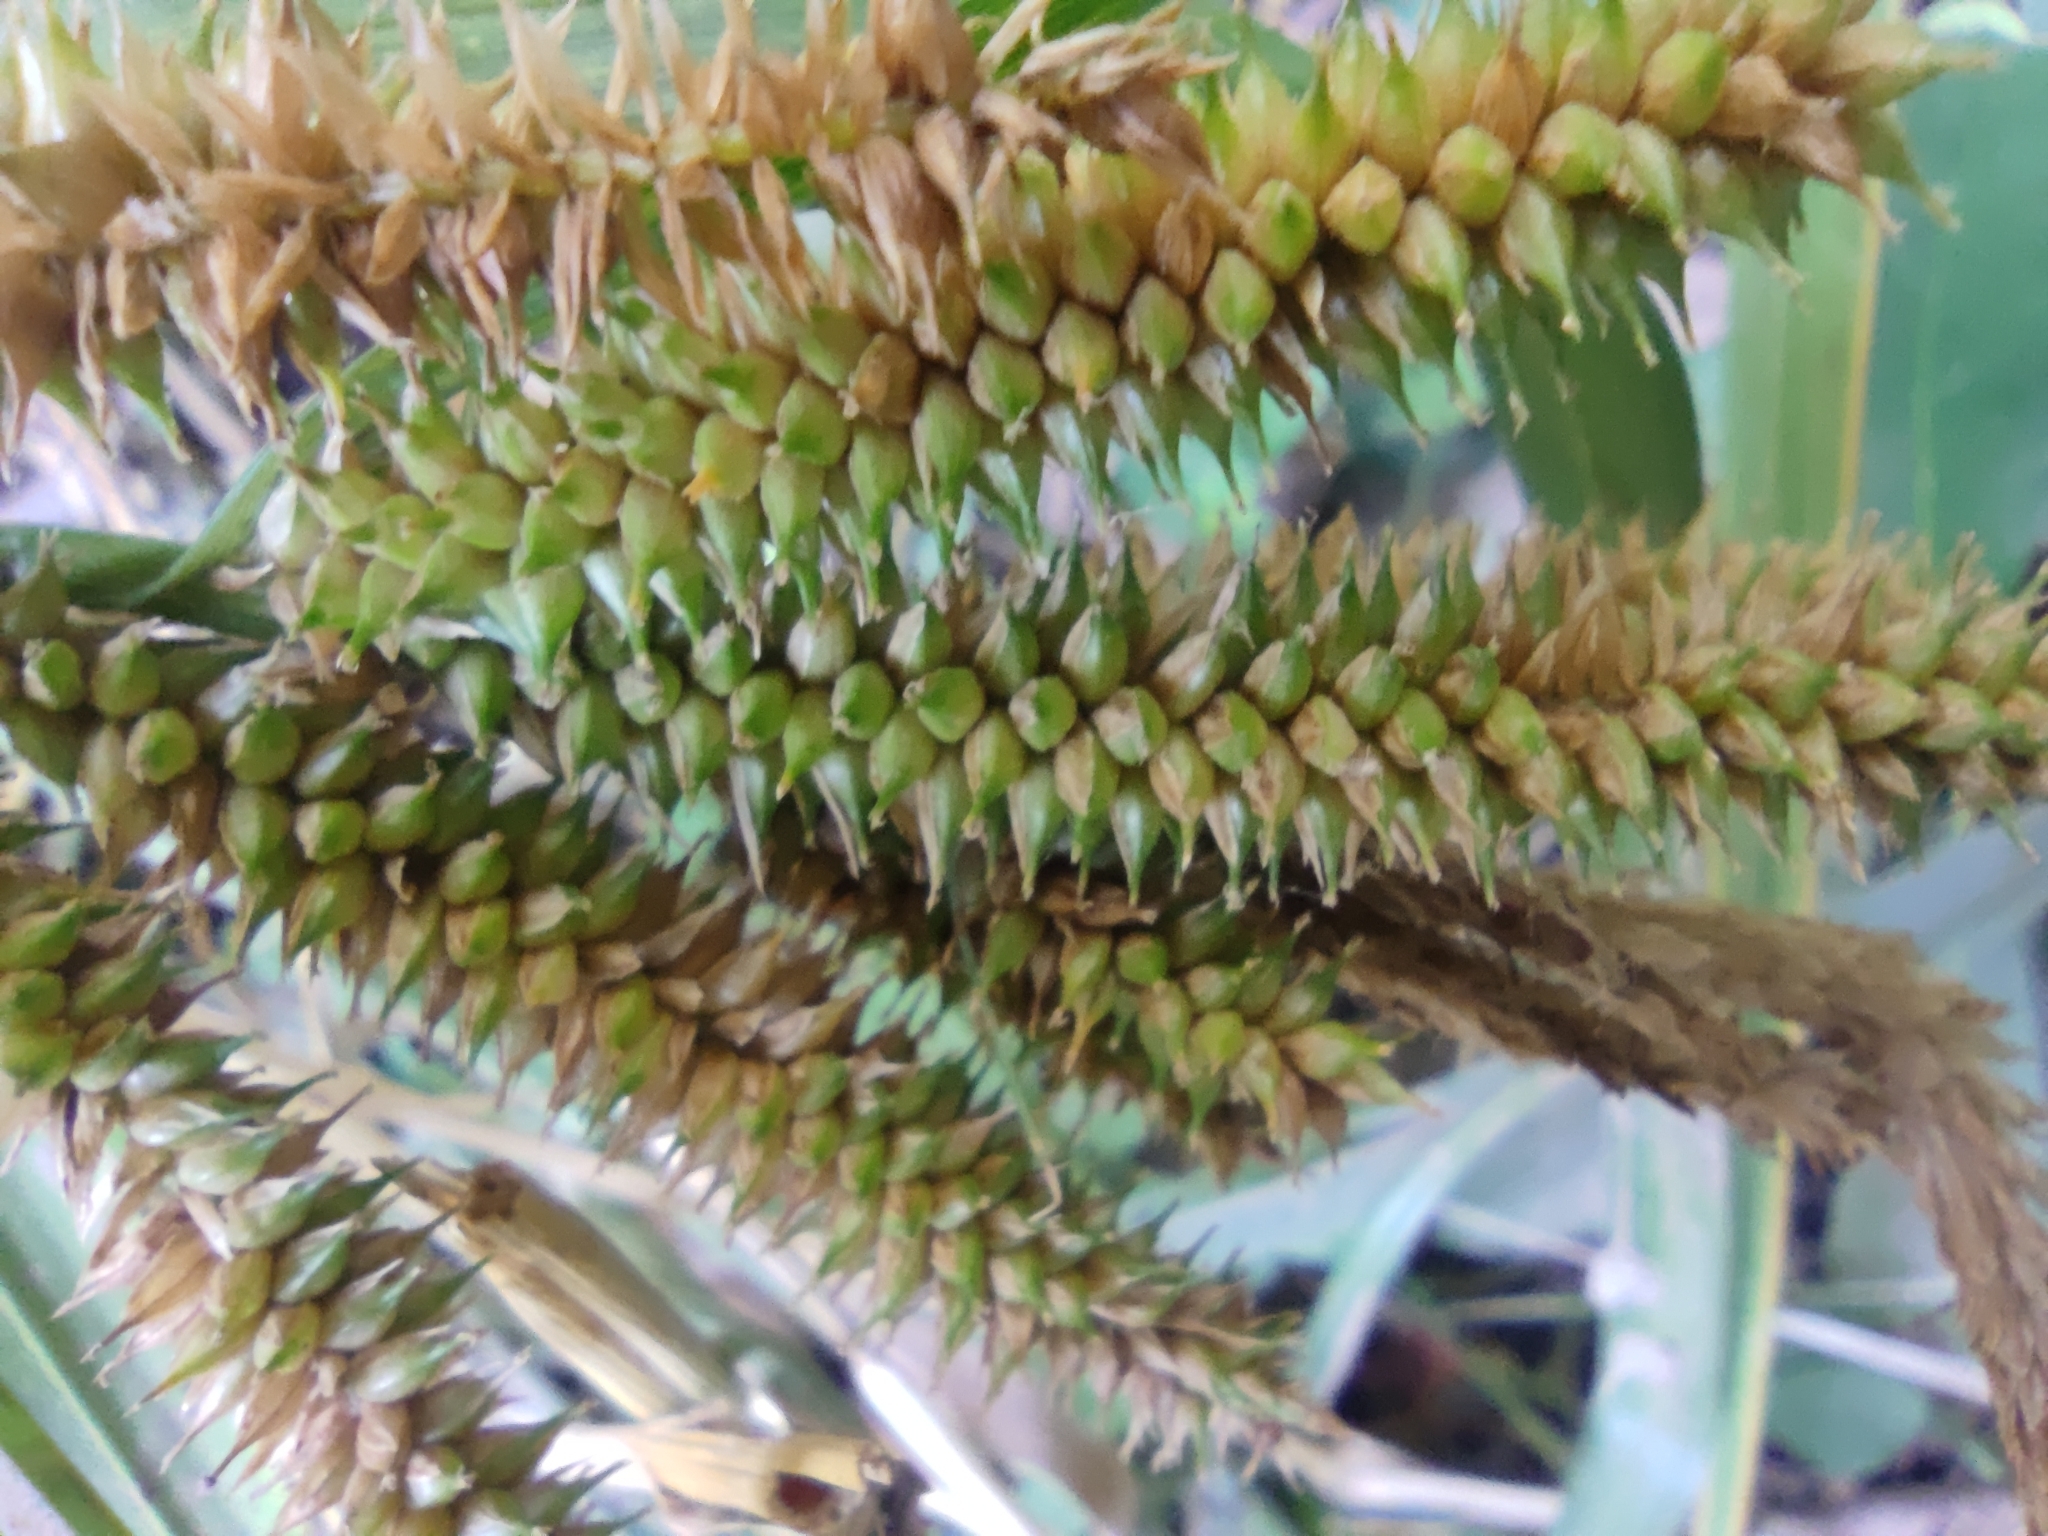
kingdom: Plantae
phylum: Tracheophyta
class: Liliopsida
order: Poales
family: Cyperaceae
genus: Carex
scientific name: Carex multispicata
